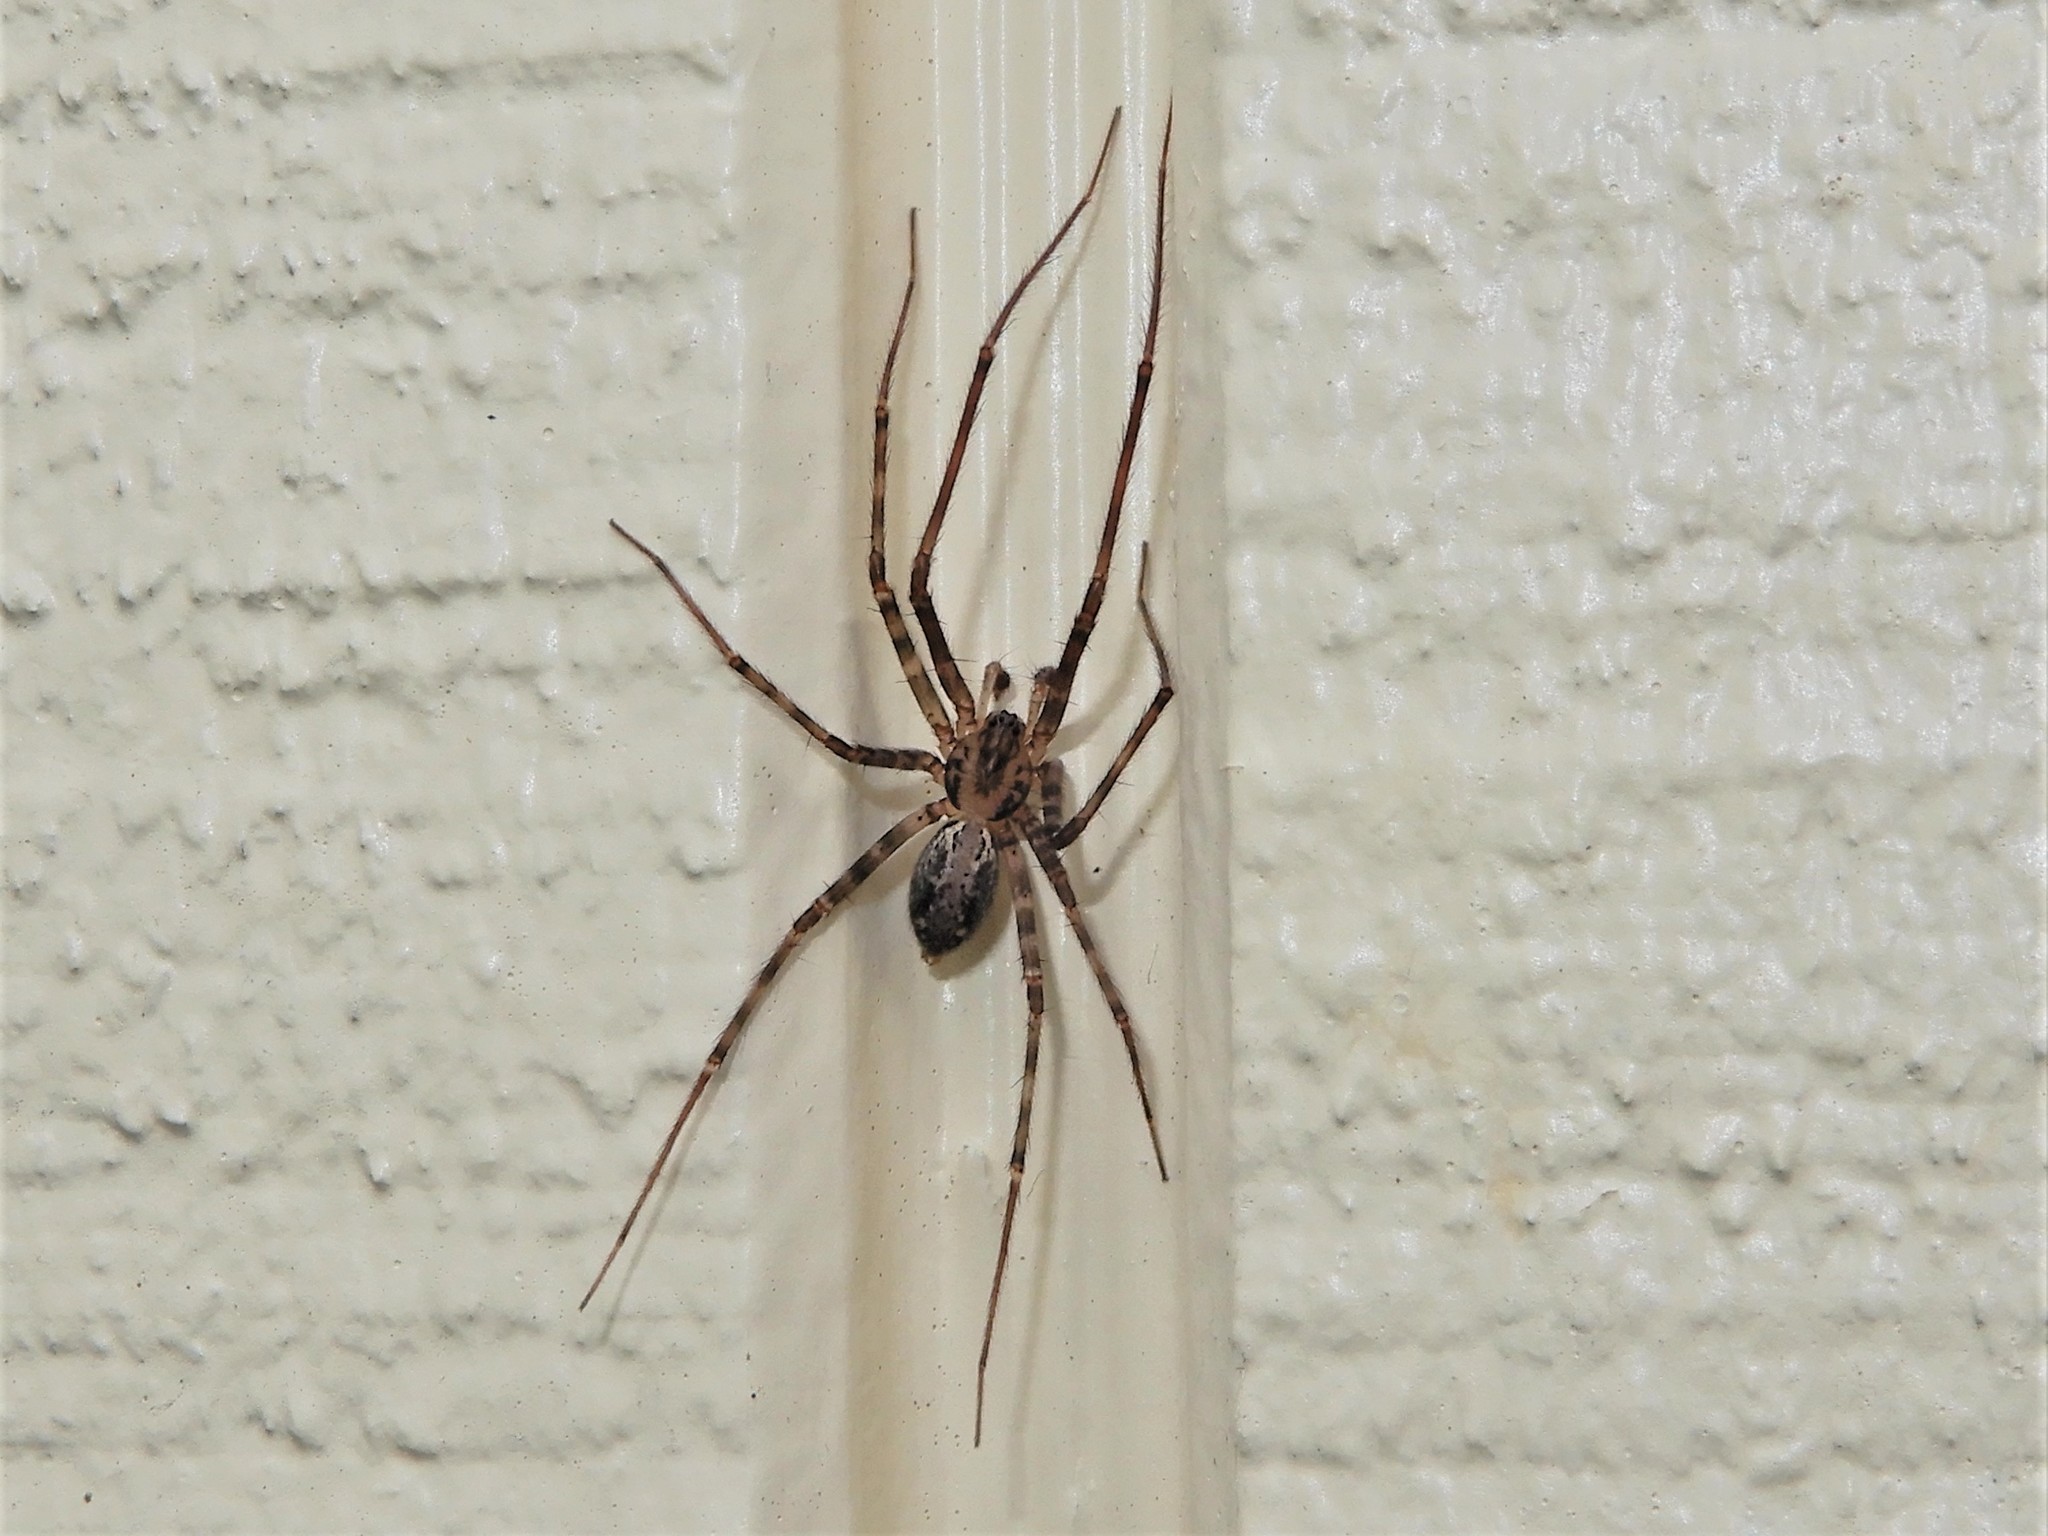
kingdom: Animalia
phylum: Arthropoda
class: Arachnida
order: Araneae
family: Stiphidiidae
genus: Stiphidion
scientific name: Stiphidion facetum
